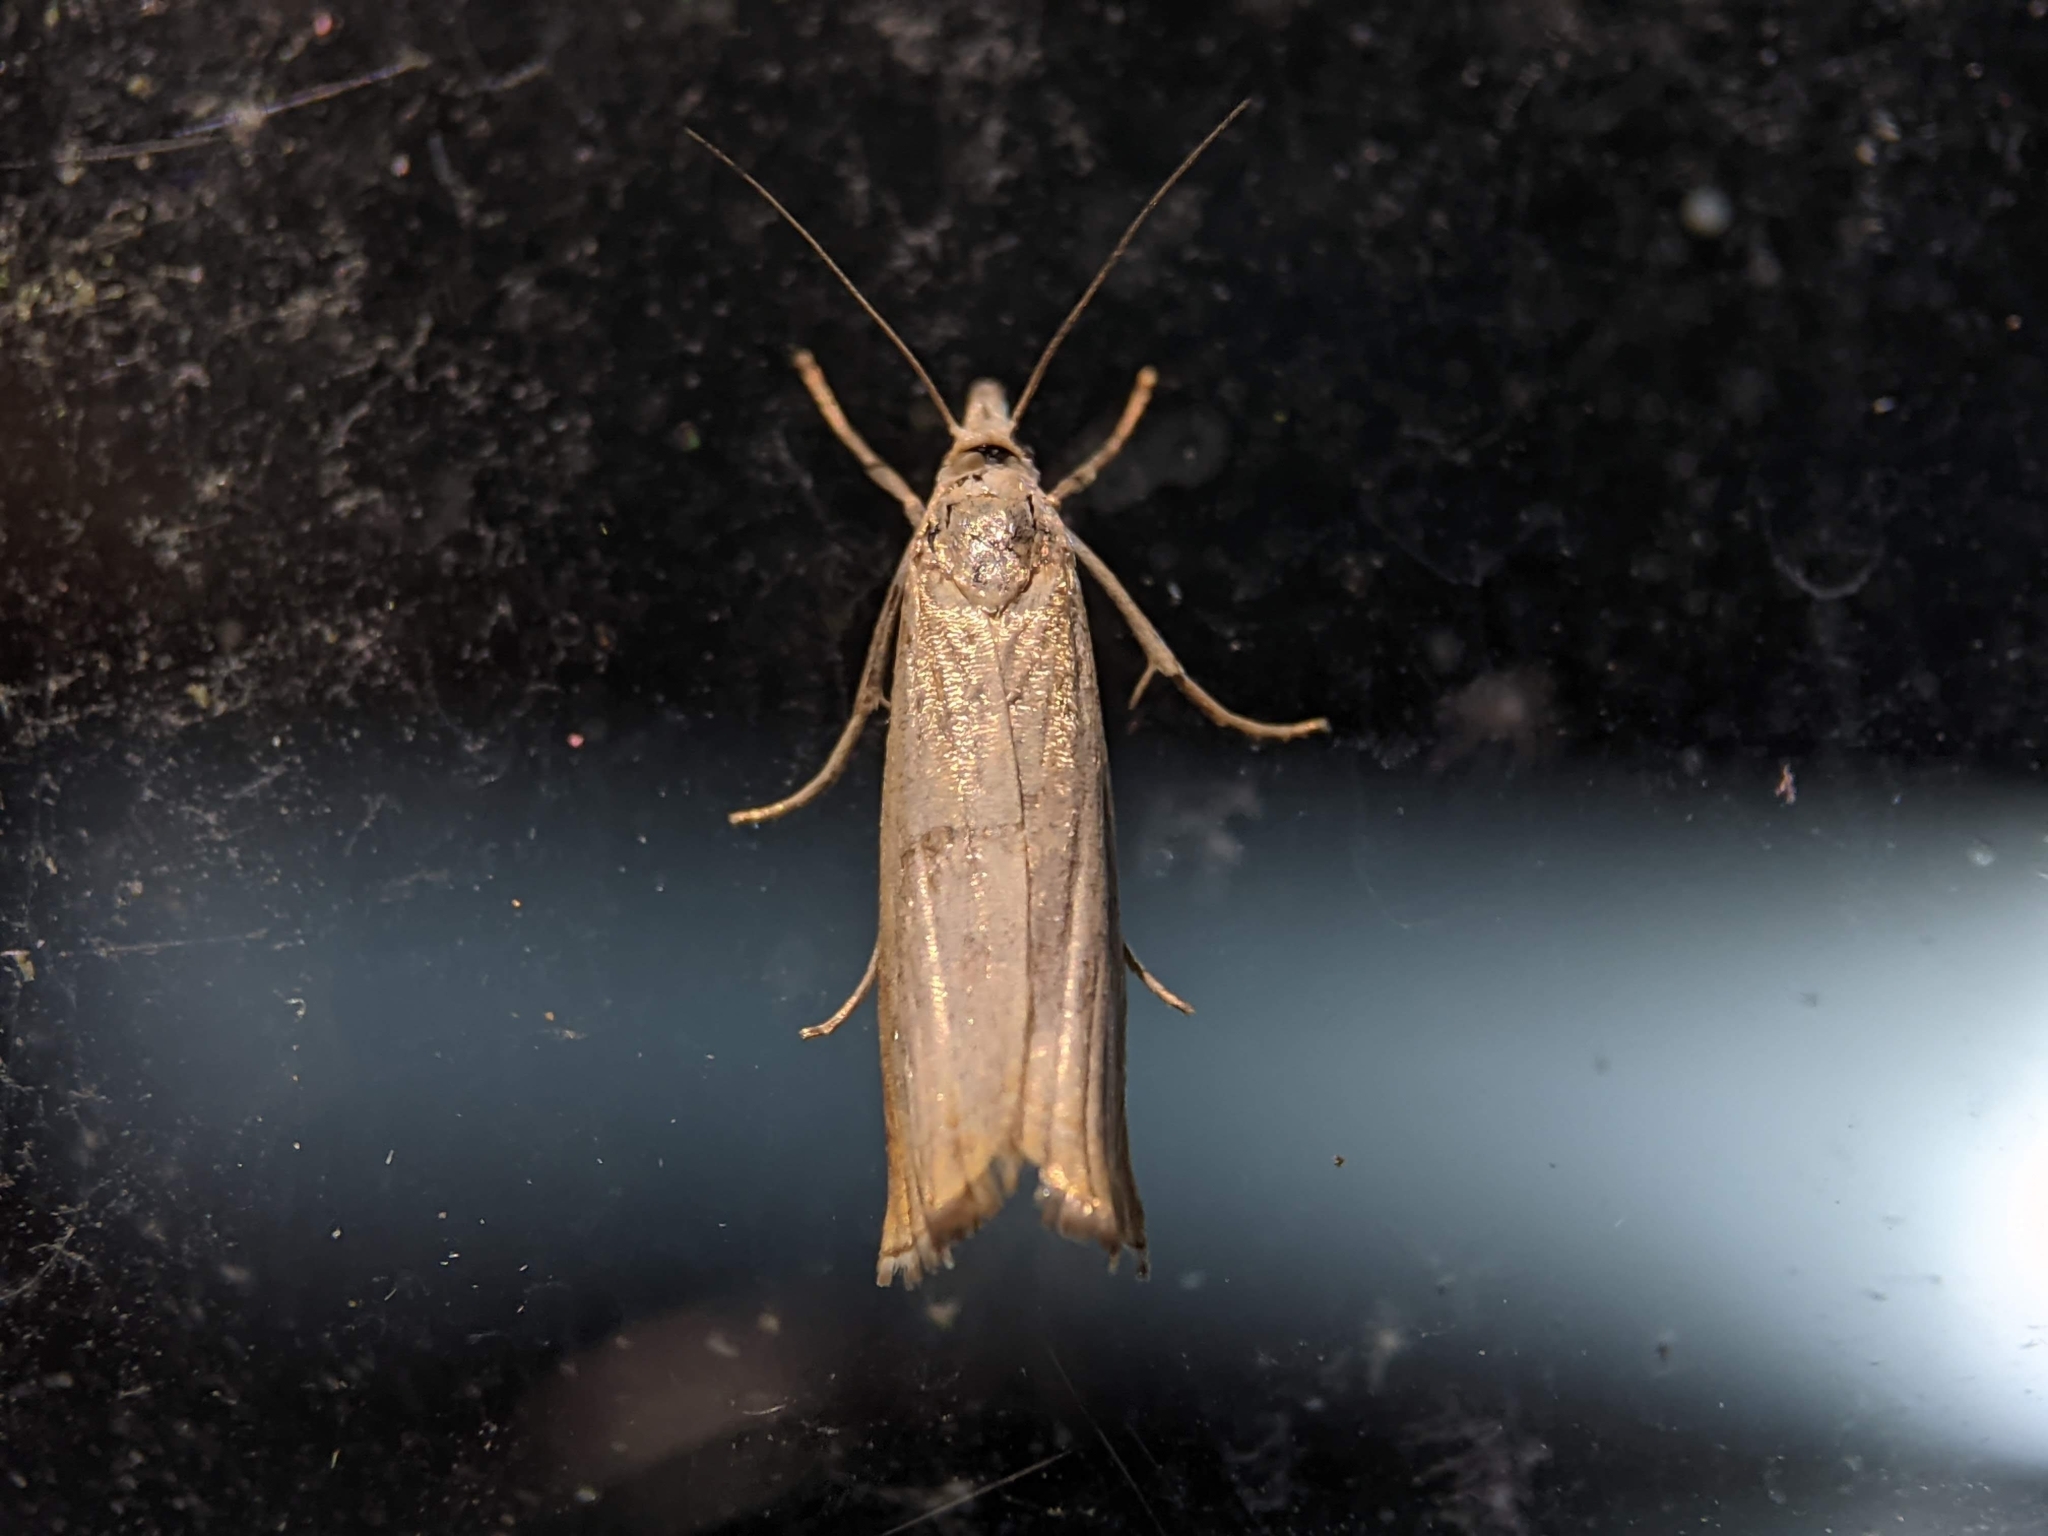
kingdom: Animalia
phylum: Arthropoda
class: Insecta
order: Lepidoptera
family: Crambidae
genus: Chrysoteuchia
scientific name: Chrysoteuchia culmella
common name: Garden grass-veneer
